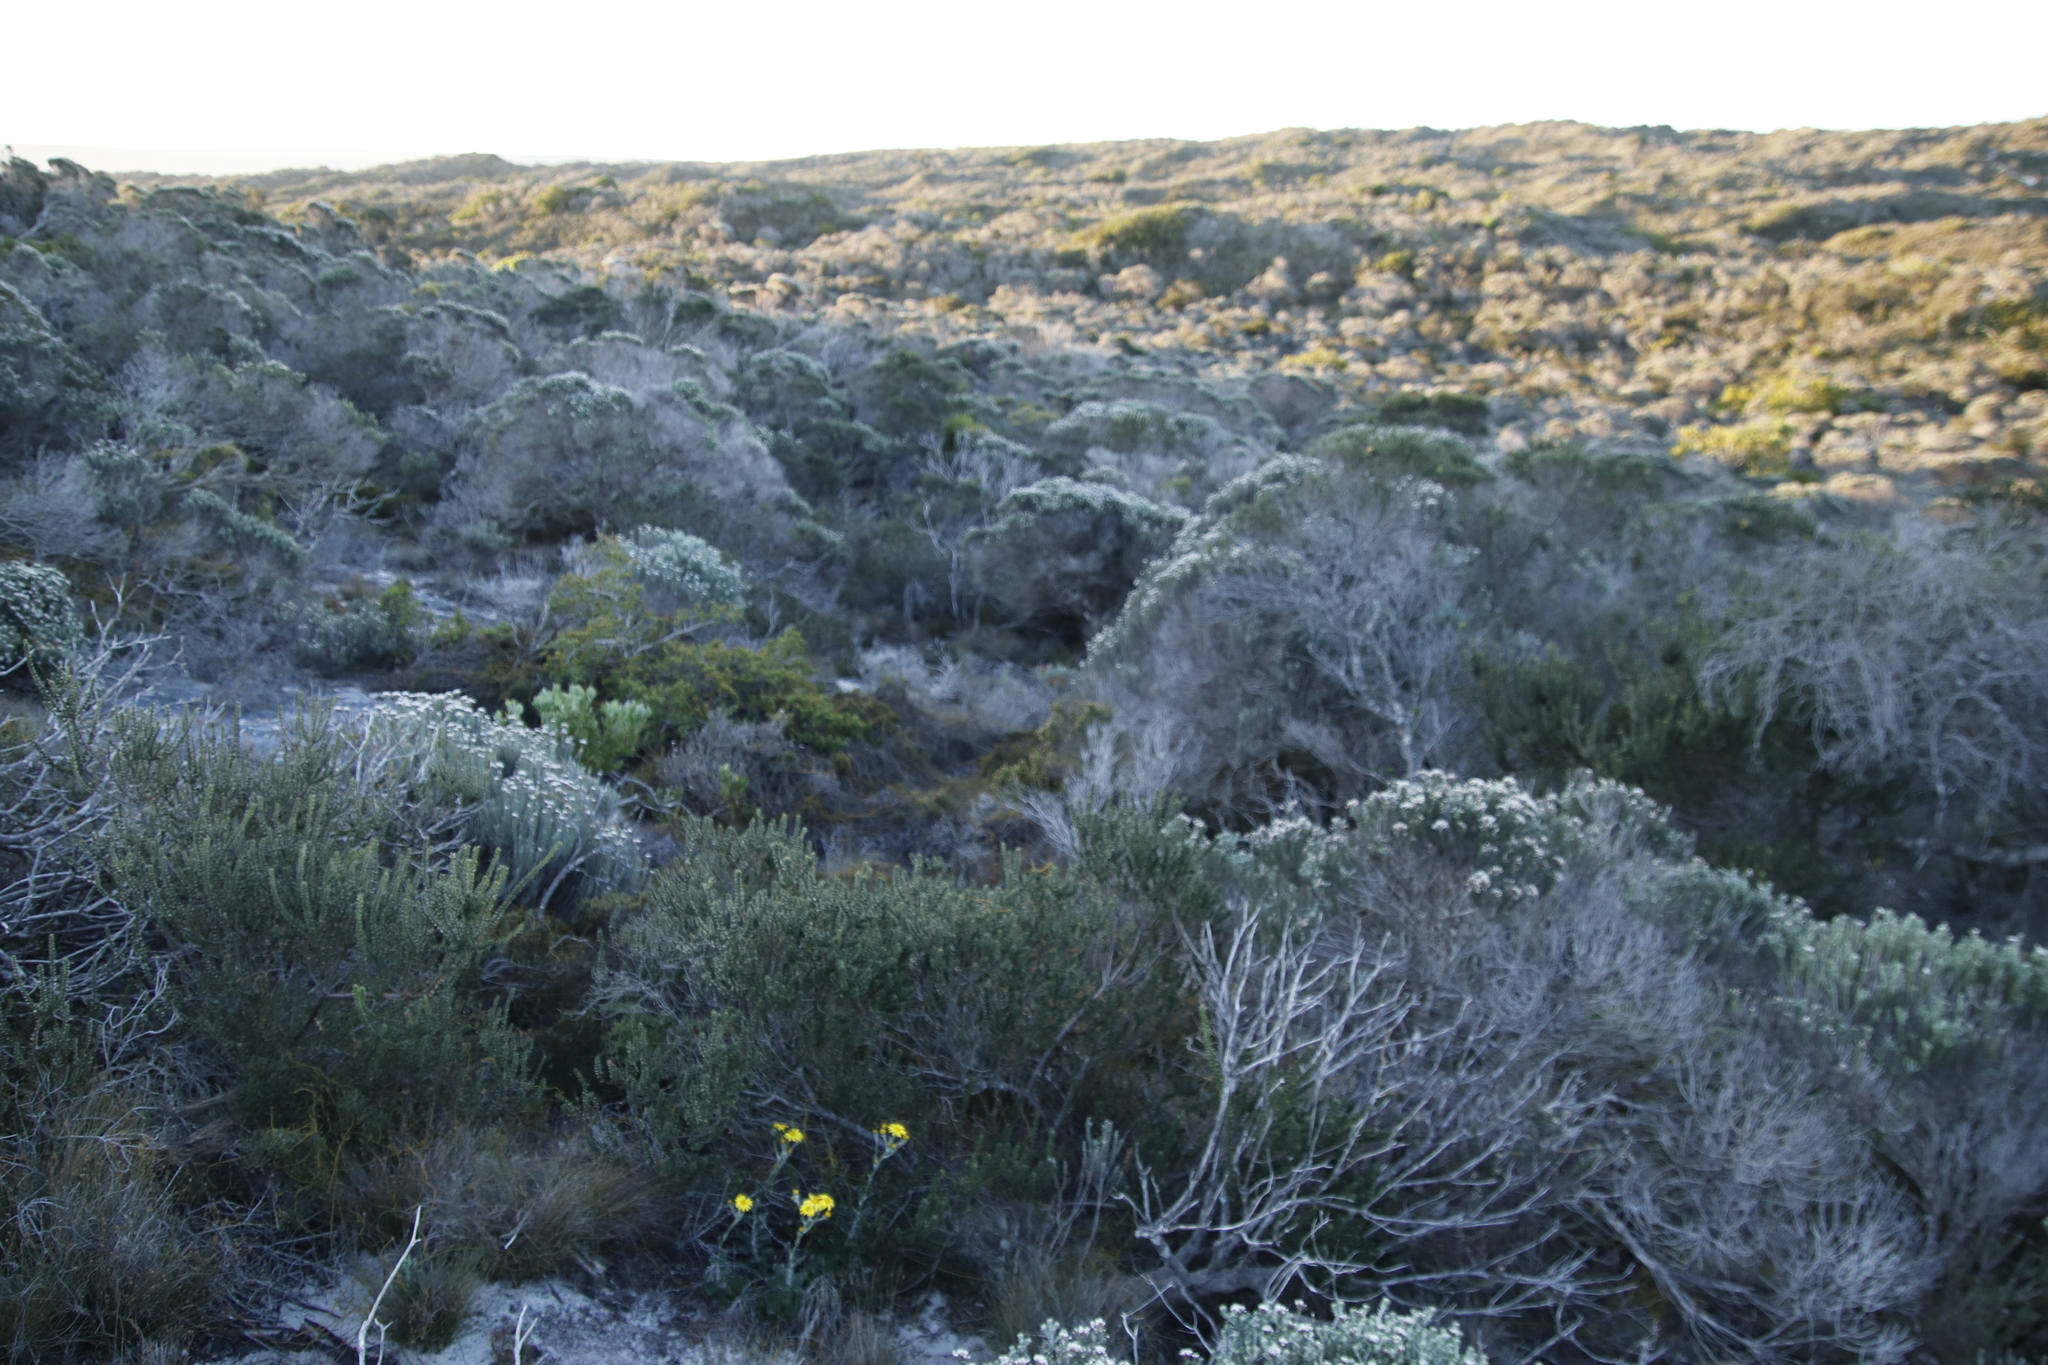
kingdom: Plantae
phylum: Tracheophyta
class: Magnoliopsida
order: Asterales
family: Asteraceae
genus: Metalasia
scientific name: Metalasia muricata
